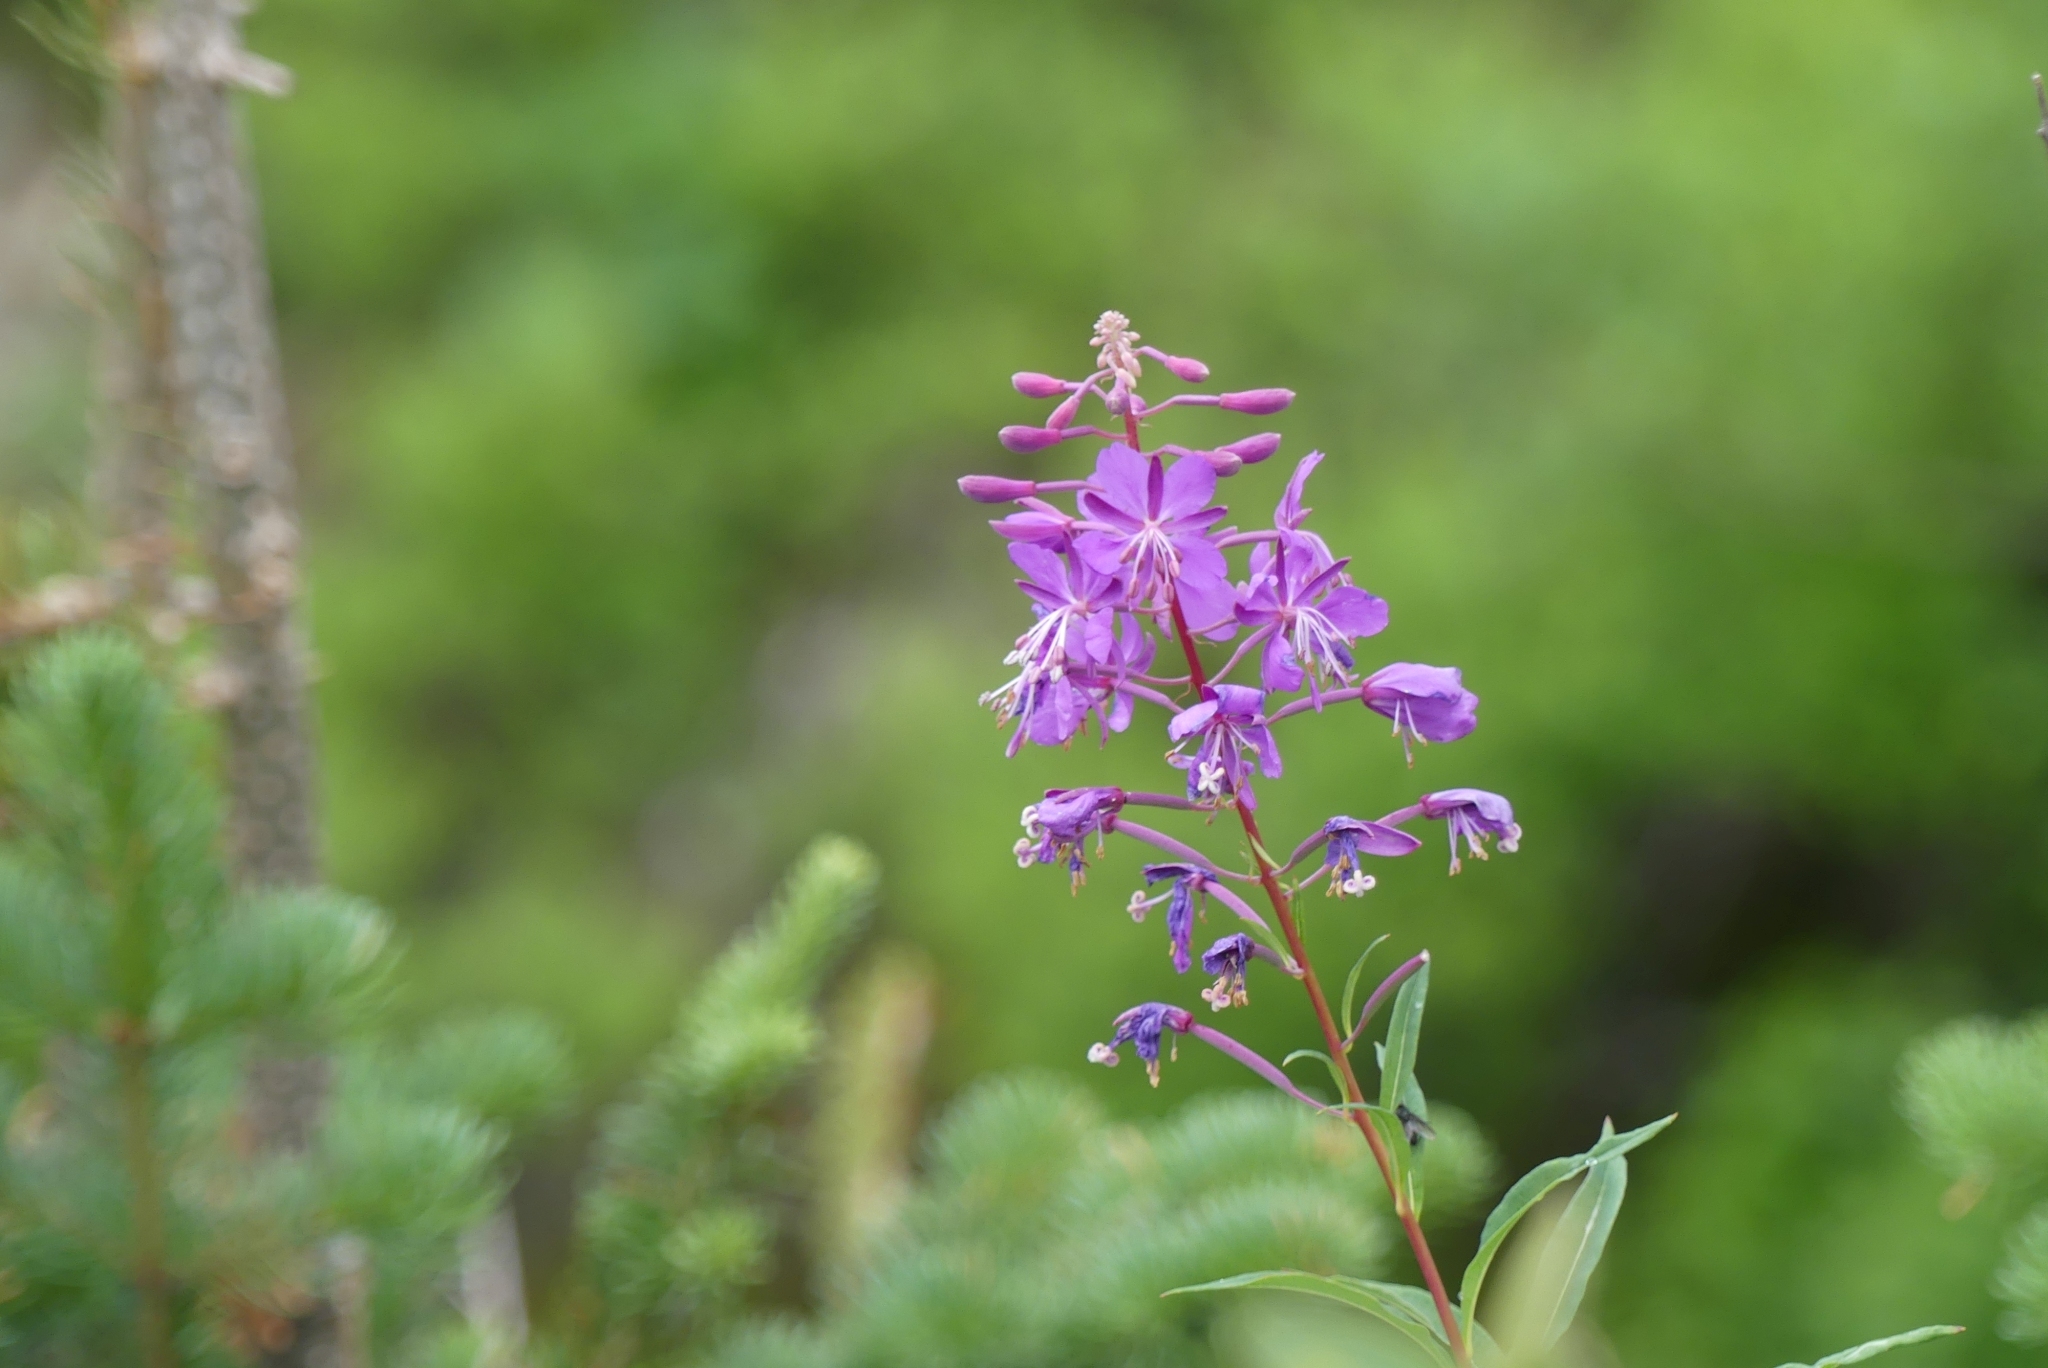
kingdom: Plantae
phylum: Tracheophyta
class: Magnoliopsida
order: Myrtales
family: Onagraceae
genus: Chamaenerion
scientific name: Chamaenerion angustifolium
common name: Fireweed
